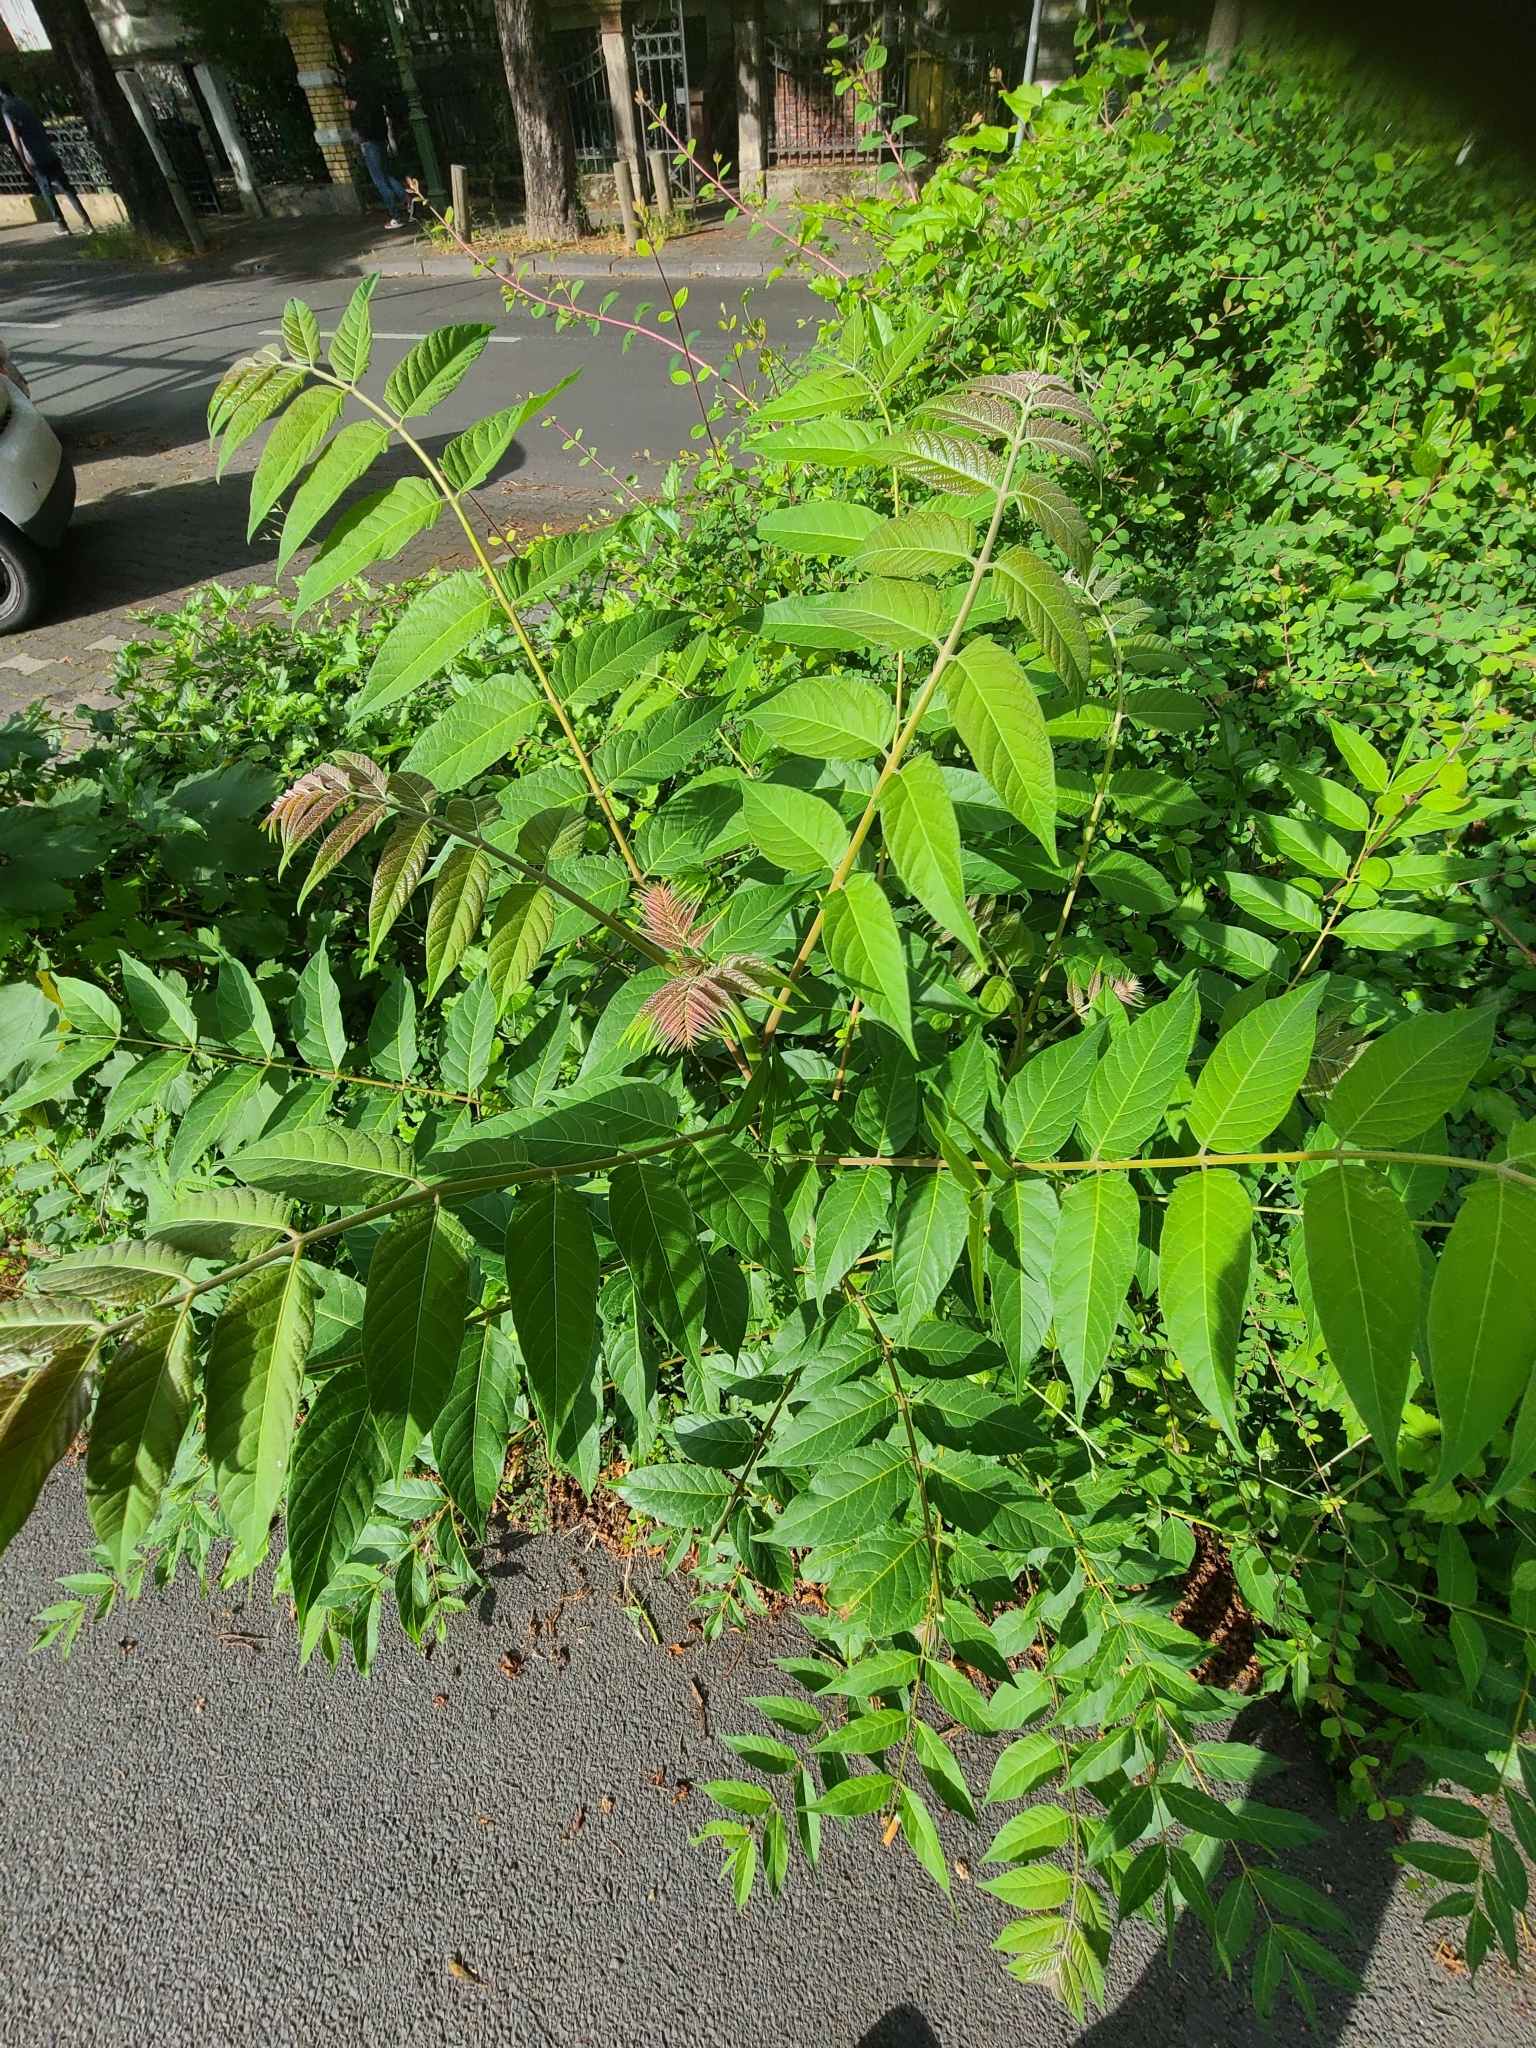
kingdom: Plantae
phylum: Tracheophyta
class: Magnoliopsida
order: Sapindales
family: Simaroubaceae
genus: Ailanthus
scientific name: Ailanthus altissima
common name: Tree-of-heaven
